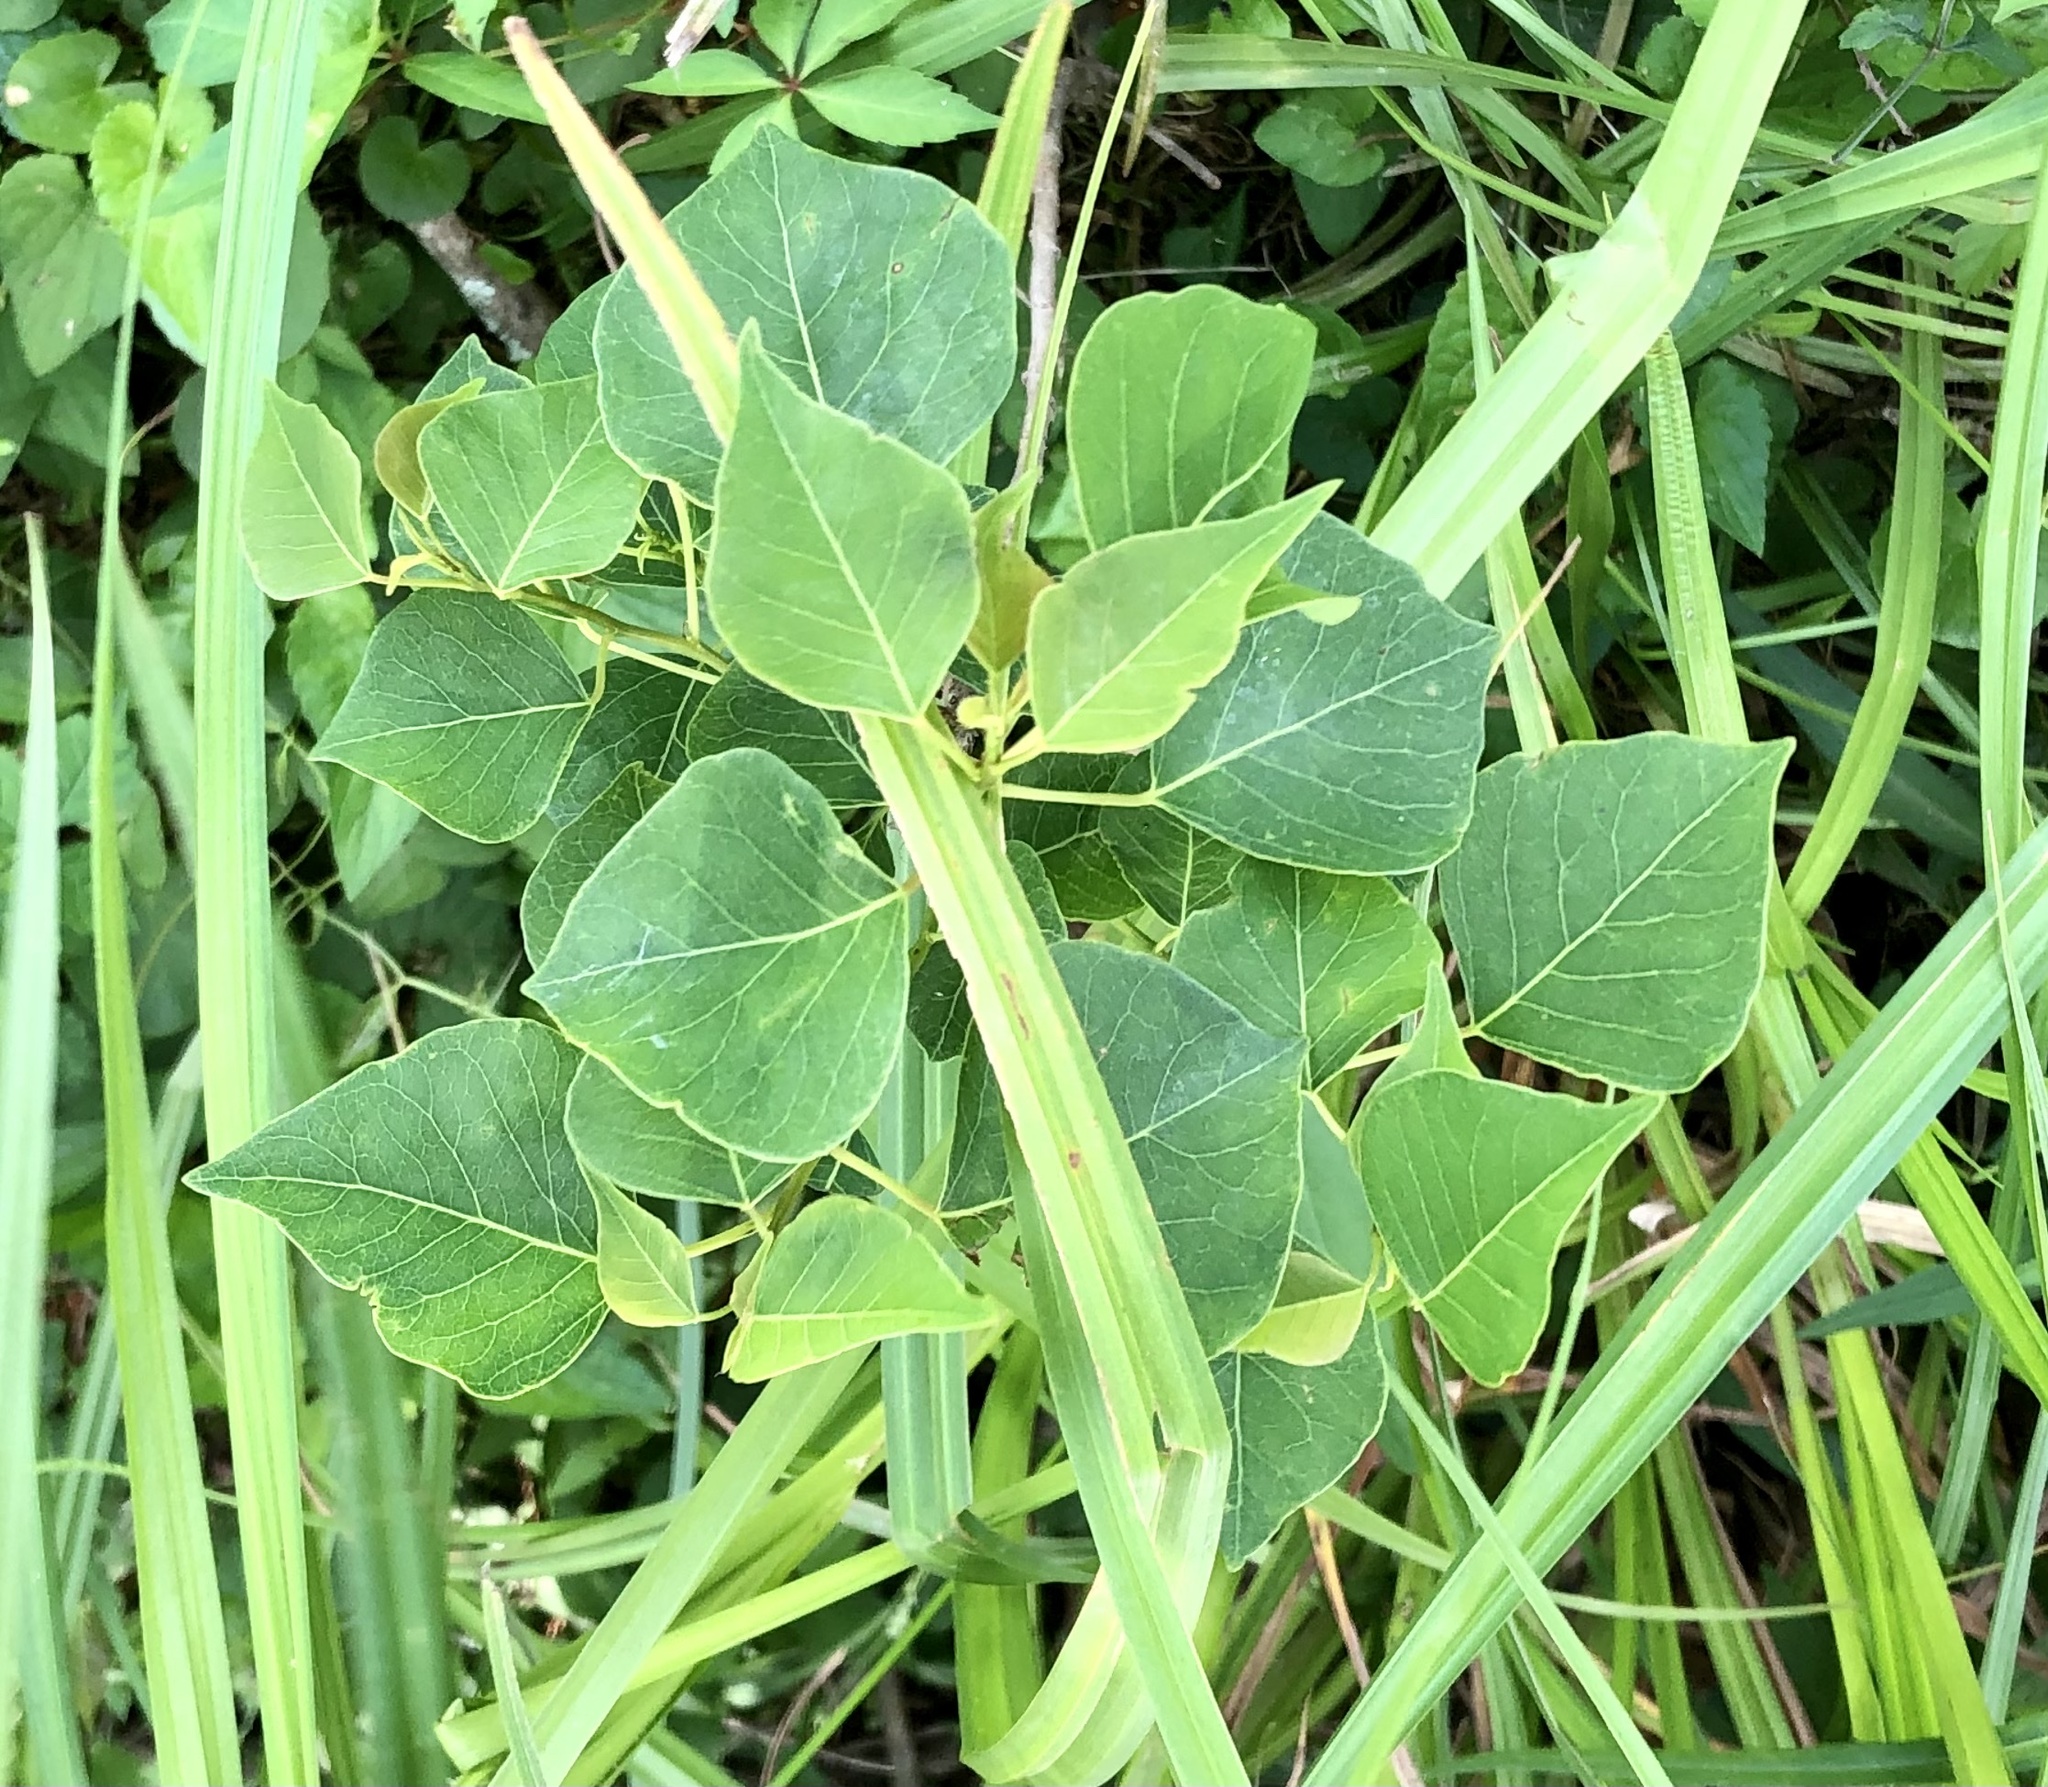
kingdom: Plantae
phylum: Tracheophyta
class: Magnoliopsida
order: Malpighiales
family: Euphorbiaceae
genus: Triadica
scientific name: Triadica sebifera
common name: Chinese tallow
